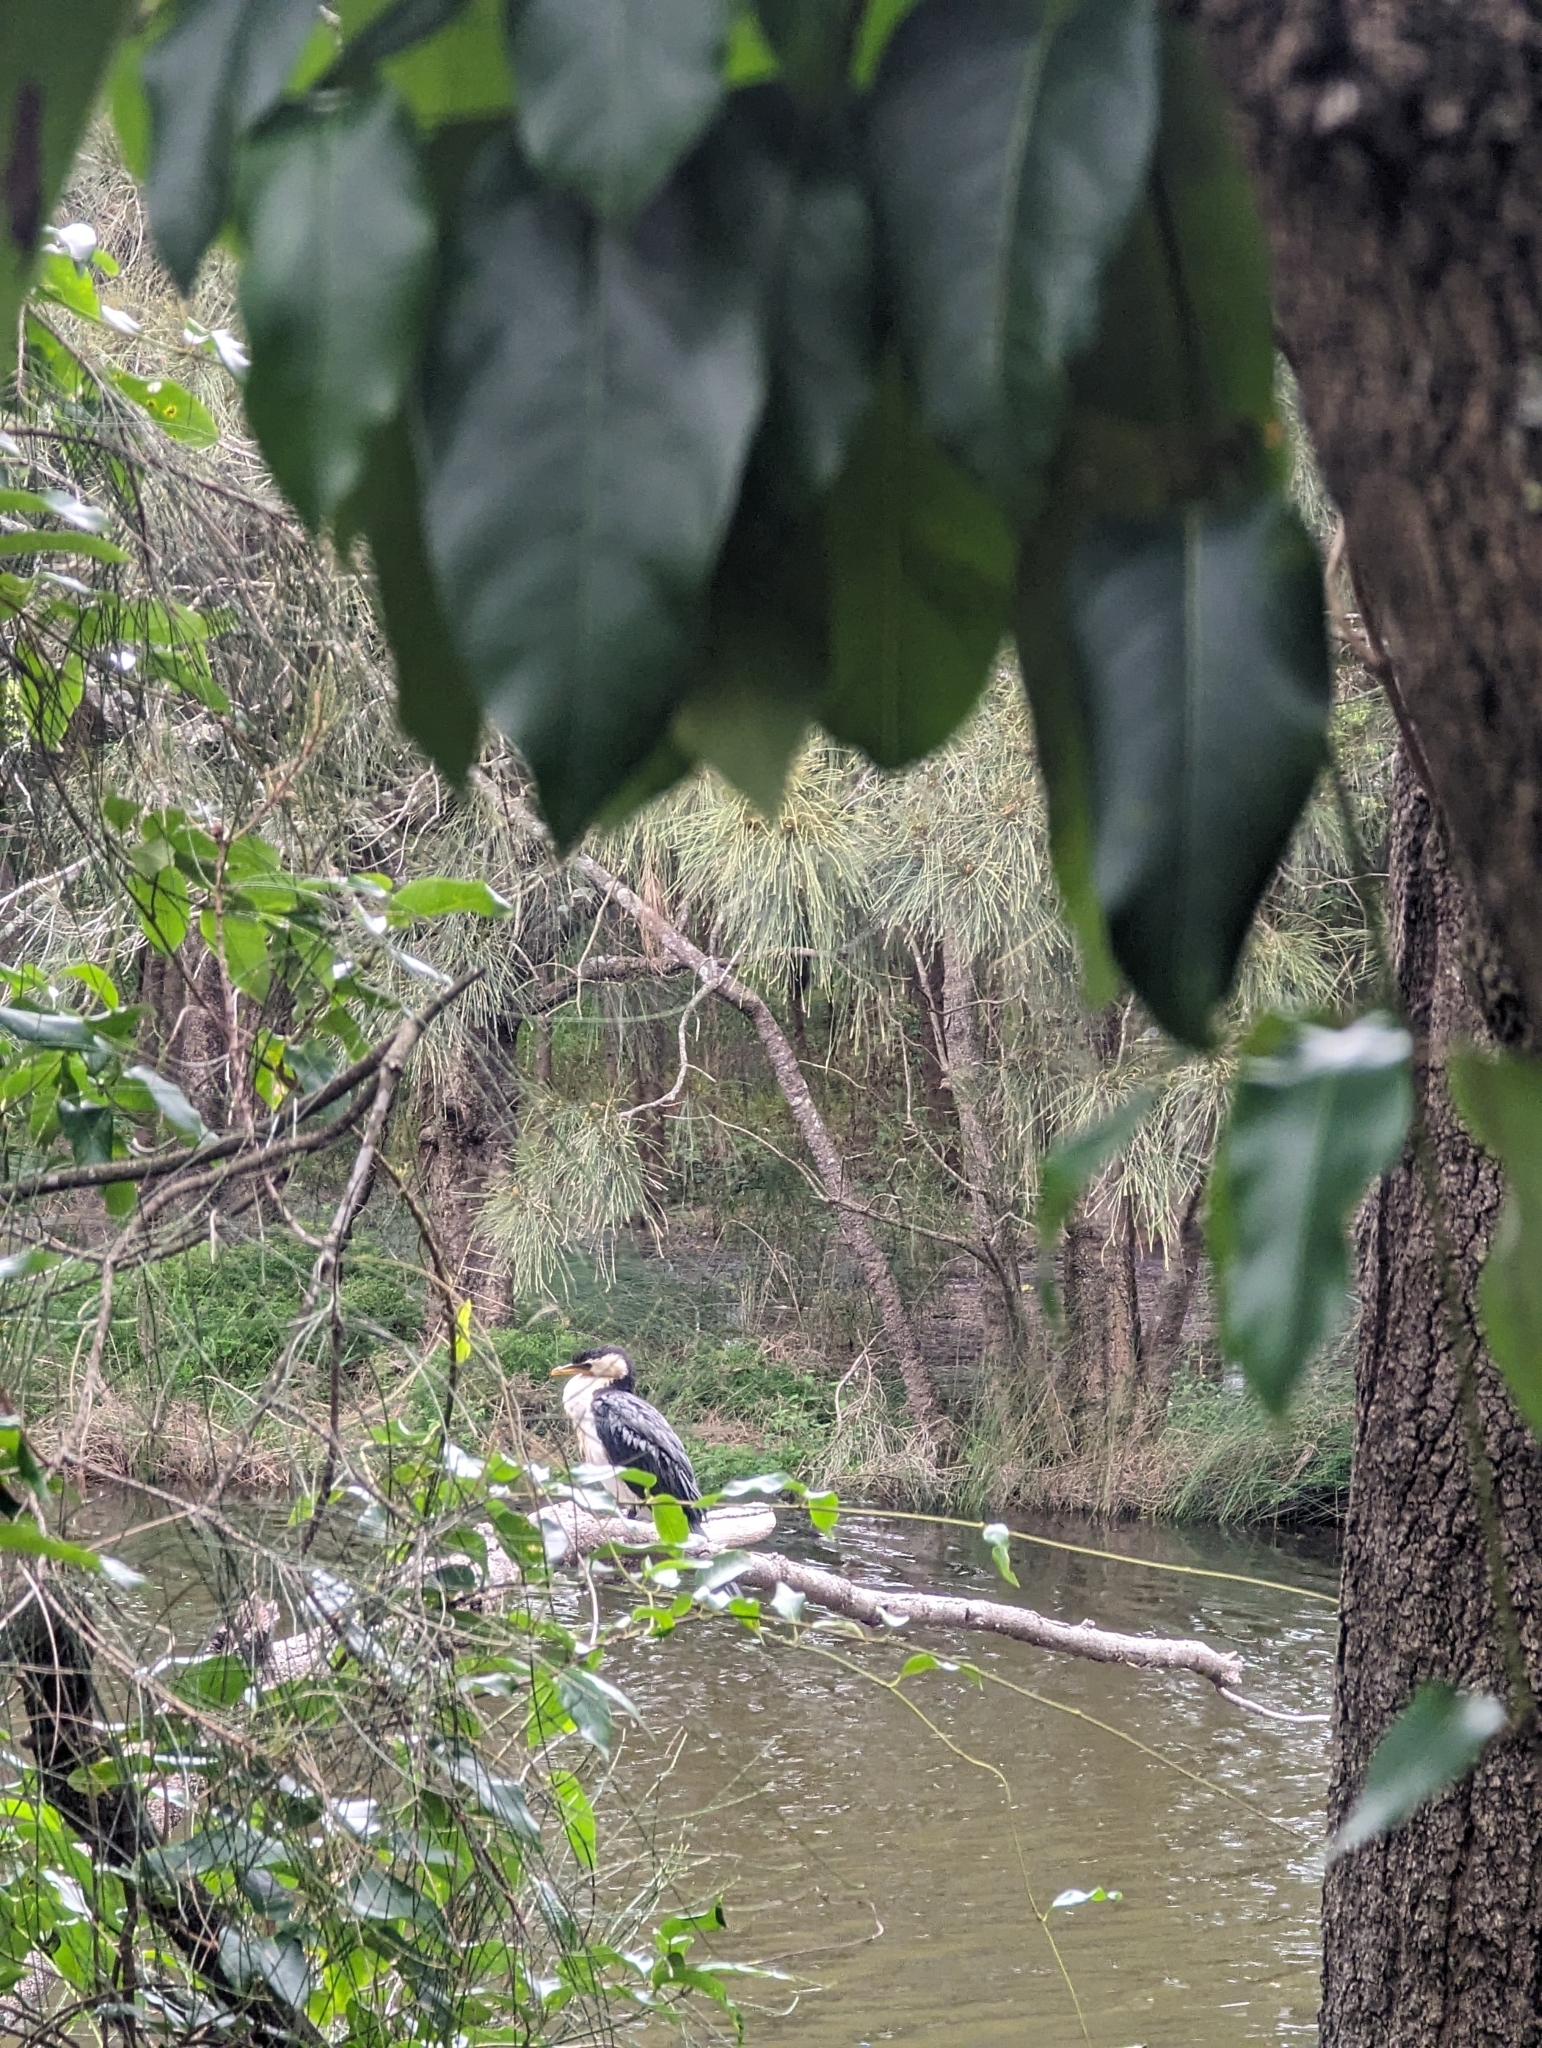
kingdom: Animalia
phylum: Chordata
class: Aves
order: Suliformes
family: Phalacrocoracidae
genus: Microcarbo
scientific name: Microcarbo melanoleucos
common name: Little pied cormorant
